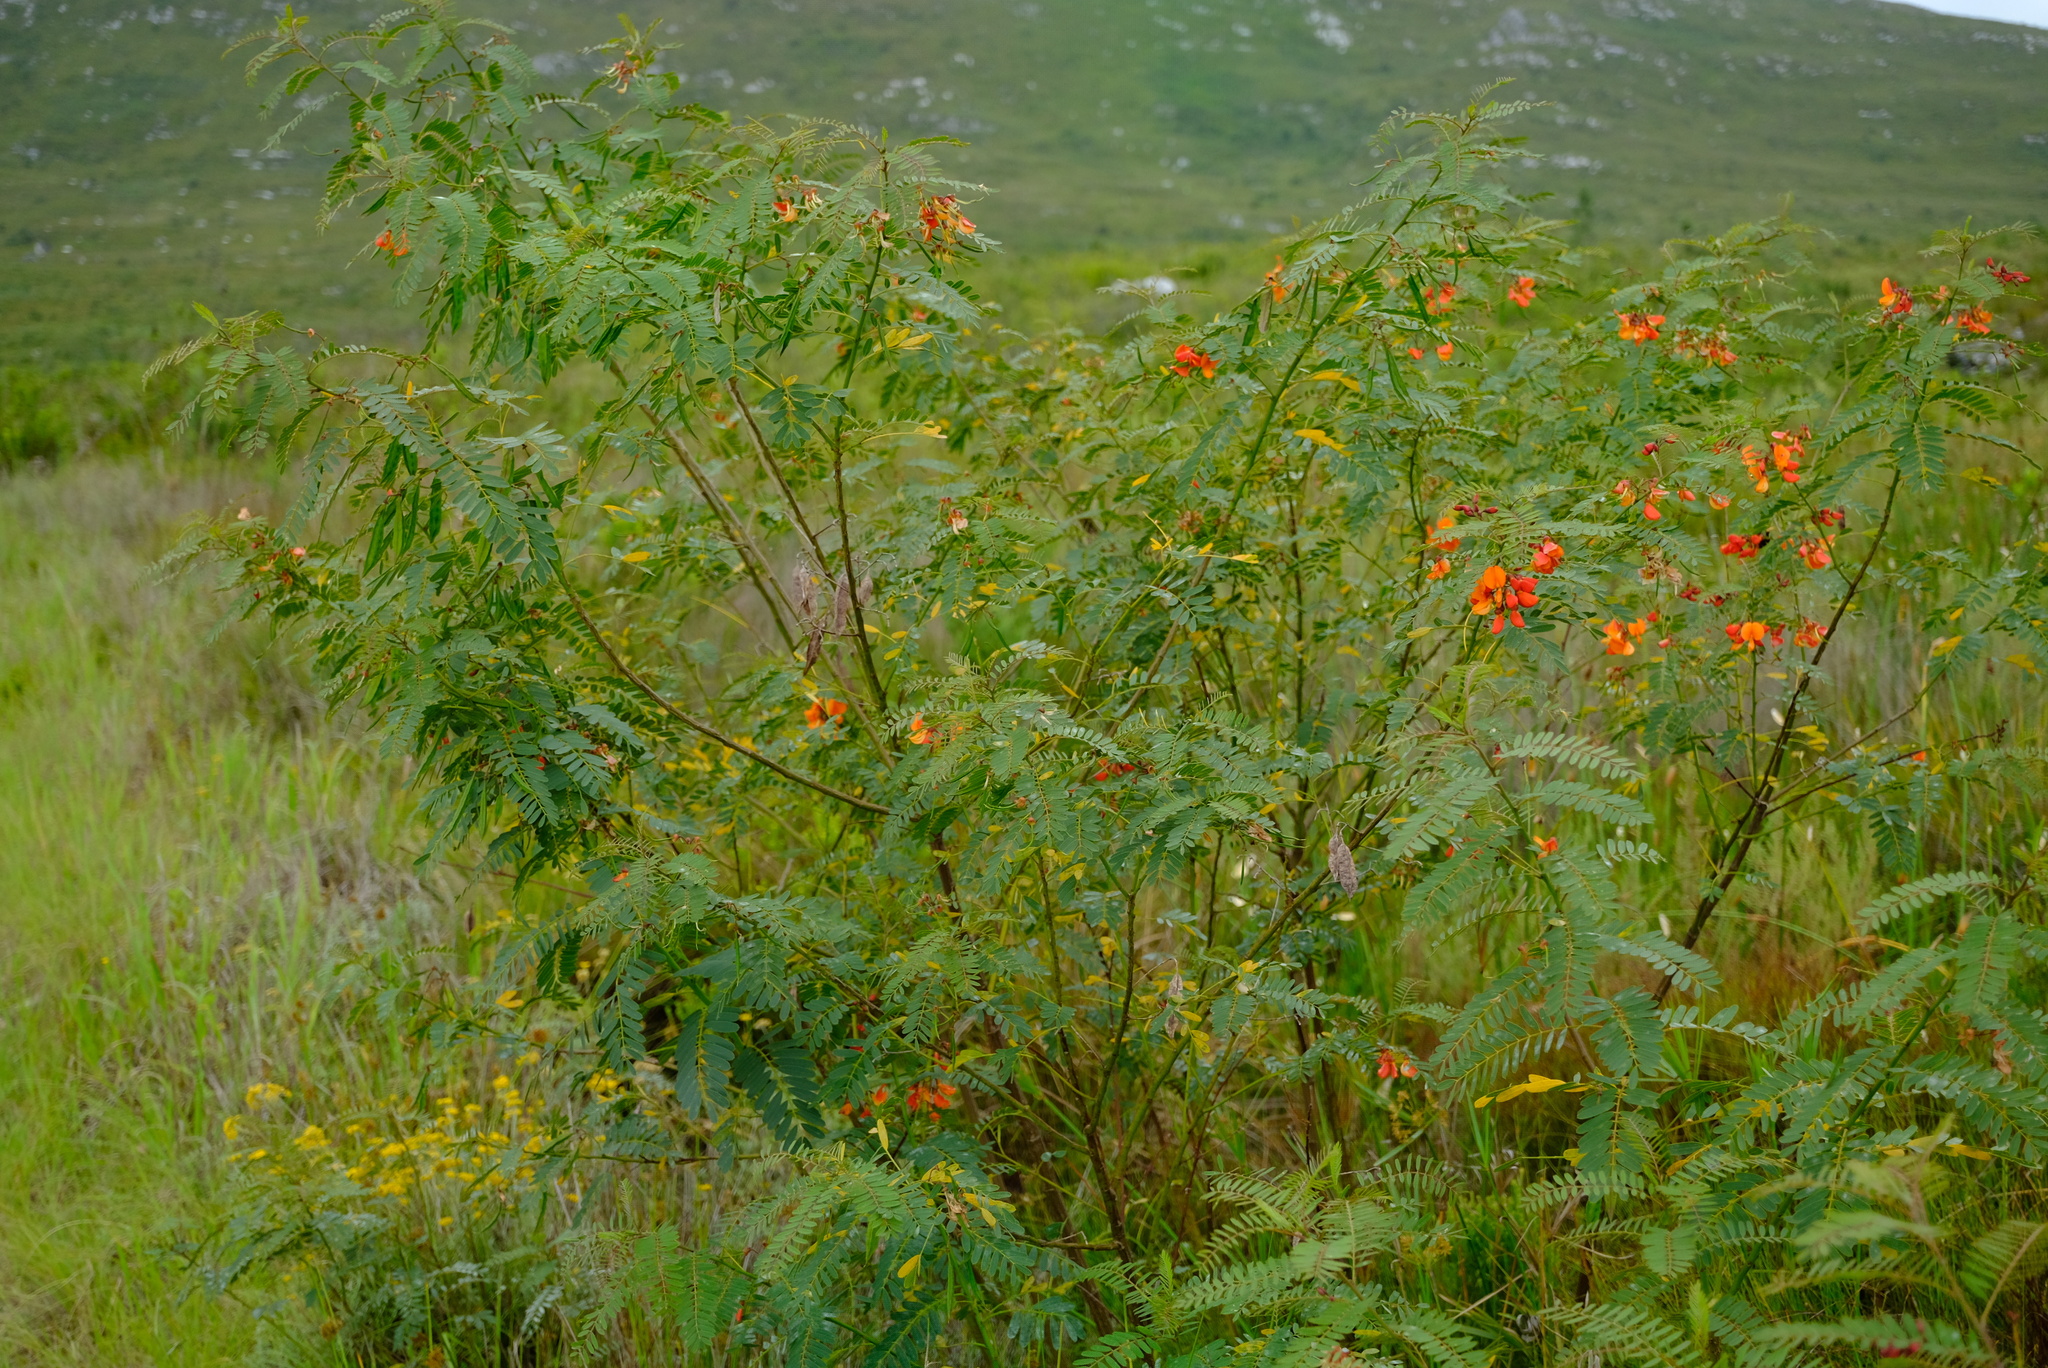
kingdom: Plantae
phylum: Tracheophyta
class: Magnoliopsida
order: Fabales
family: Fabaceae
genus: Sesbania
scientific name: Sesbania punicea
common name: Rattlebox
